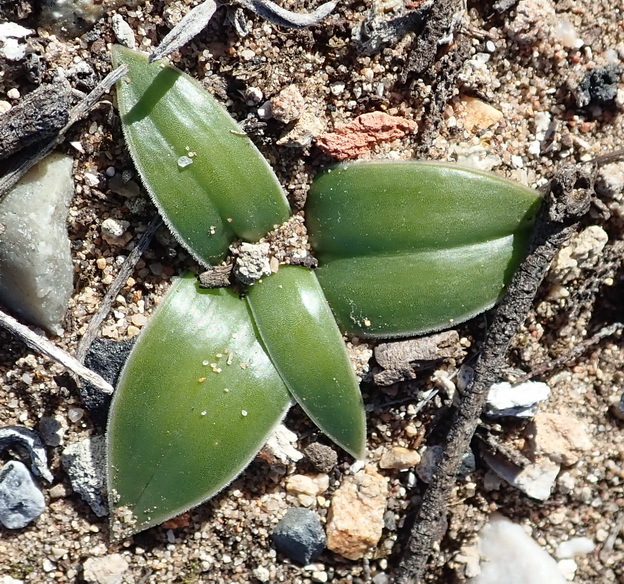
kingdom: Plantae
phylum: Tracheophyta
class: Liliopsida
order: Asparagales
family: Asparagaceae
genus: Drimia
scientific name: Drimia ciliata
